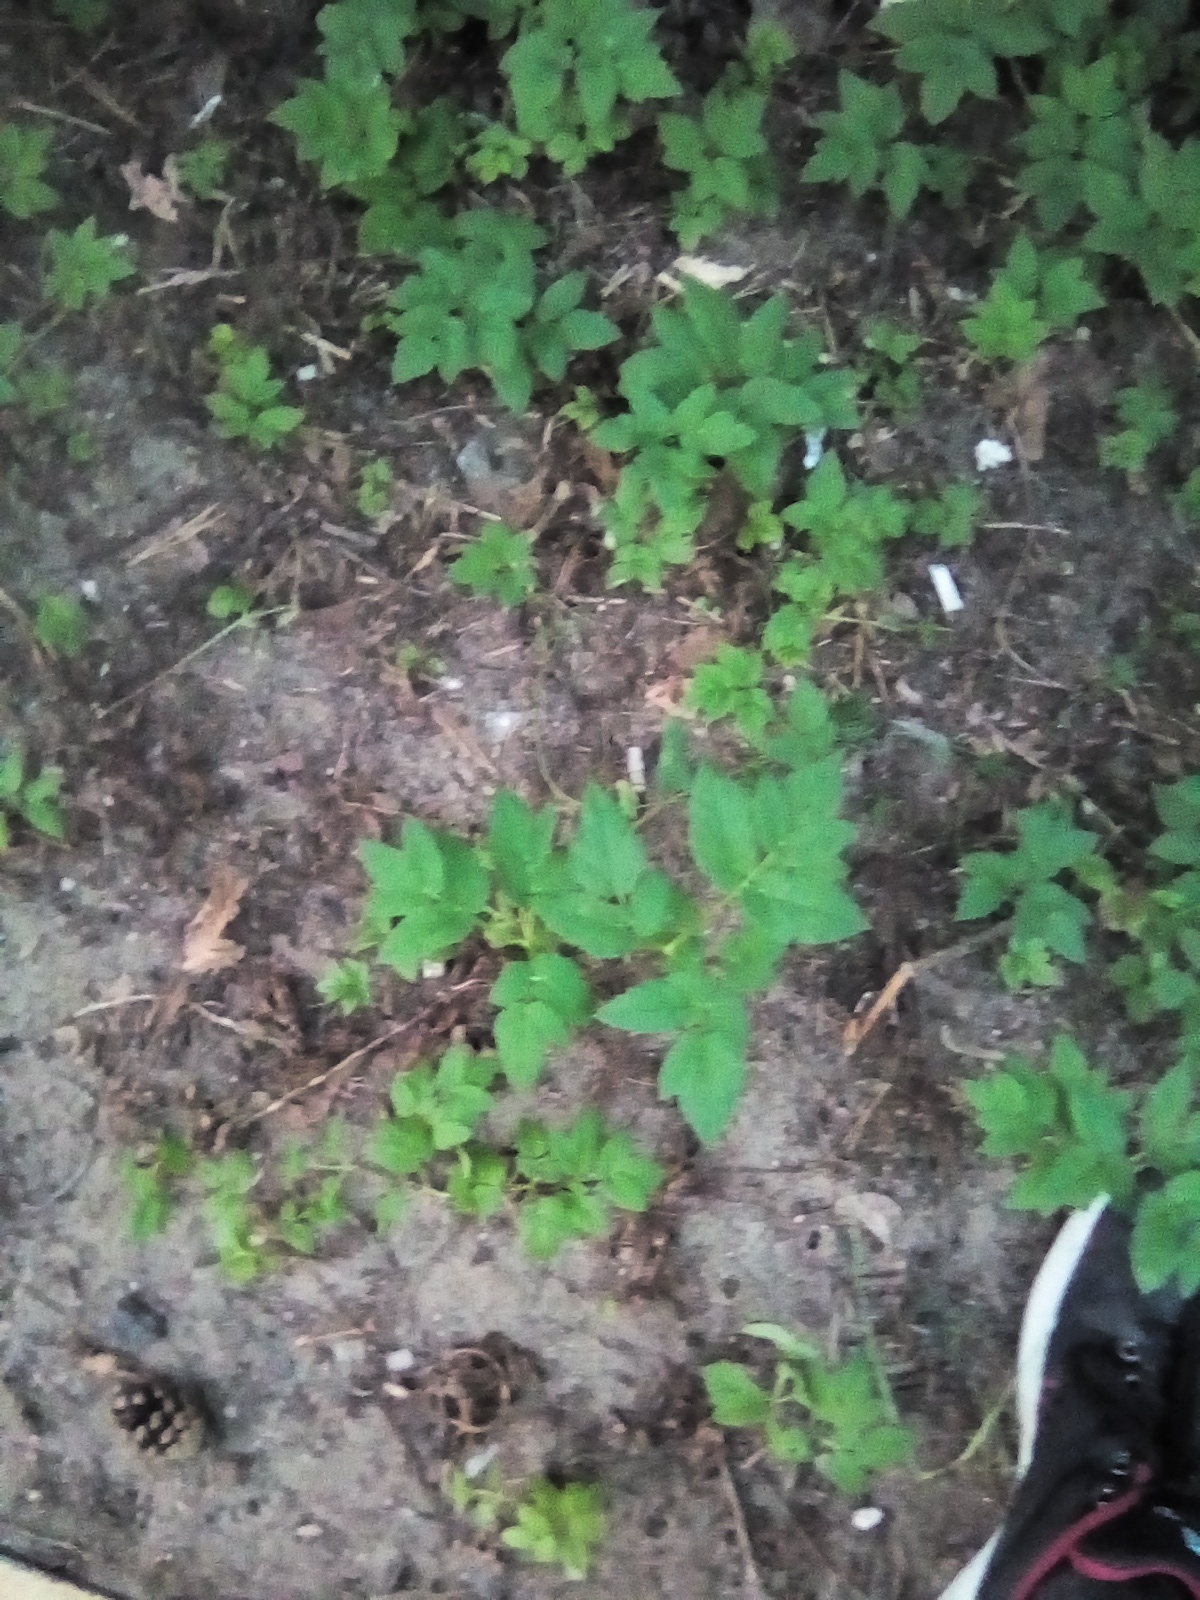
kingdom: Plantae
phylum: Tracheophyta
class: Magnoliopsida
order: Apiales
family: Apiaceae
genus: Aegopodium
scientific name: Aegopodium podagraria
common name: Ground-elder
